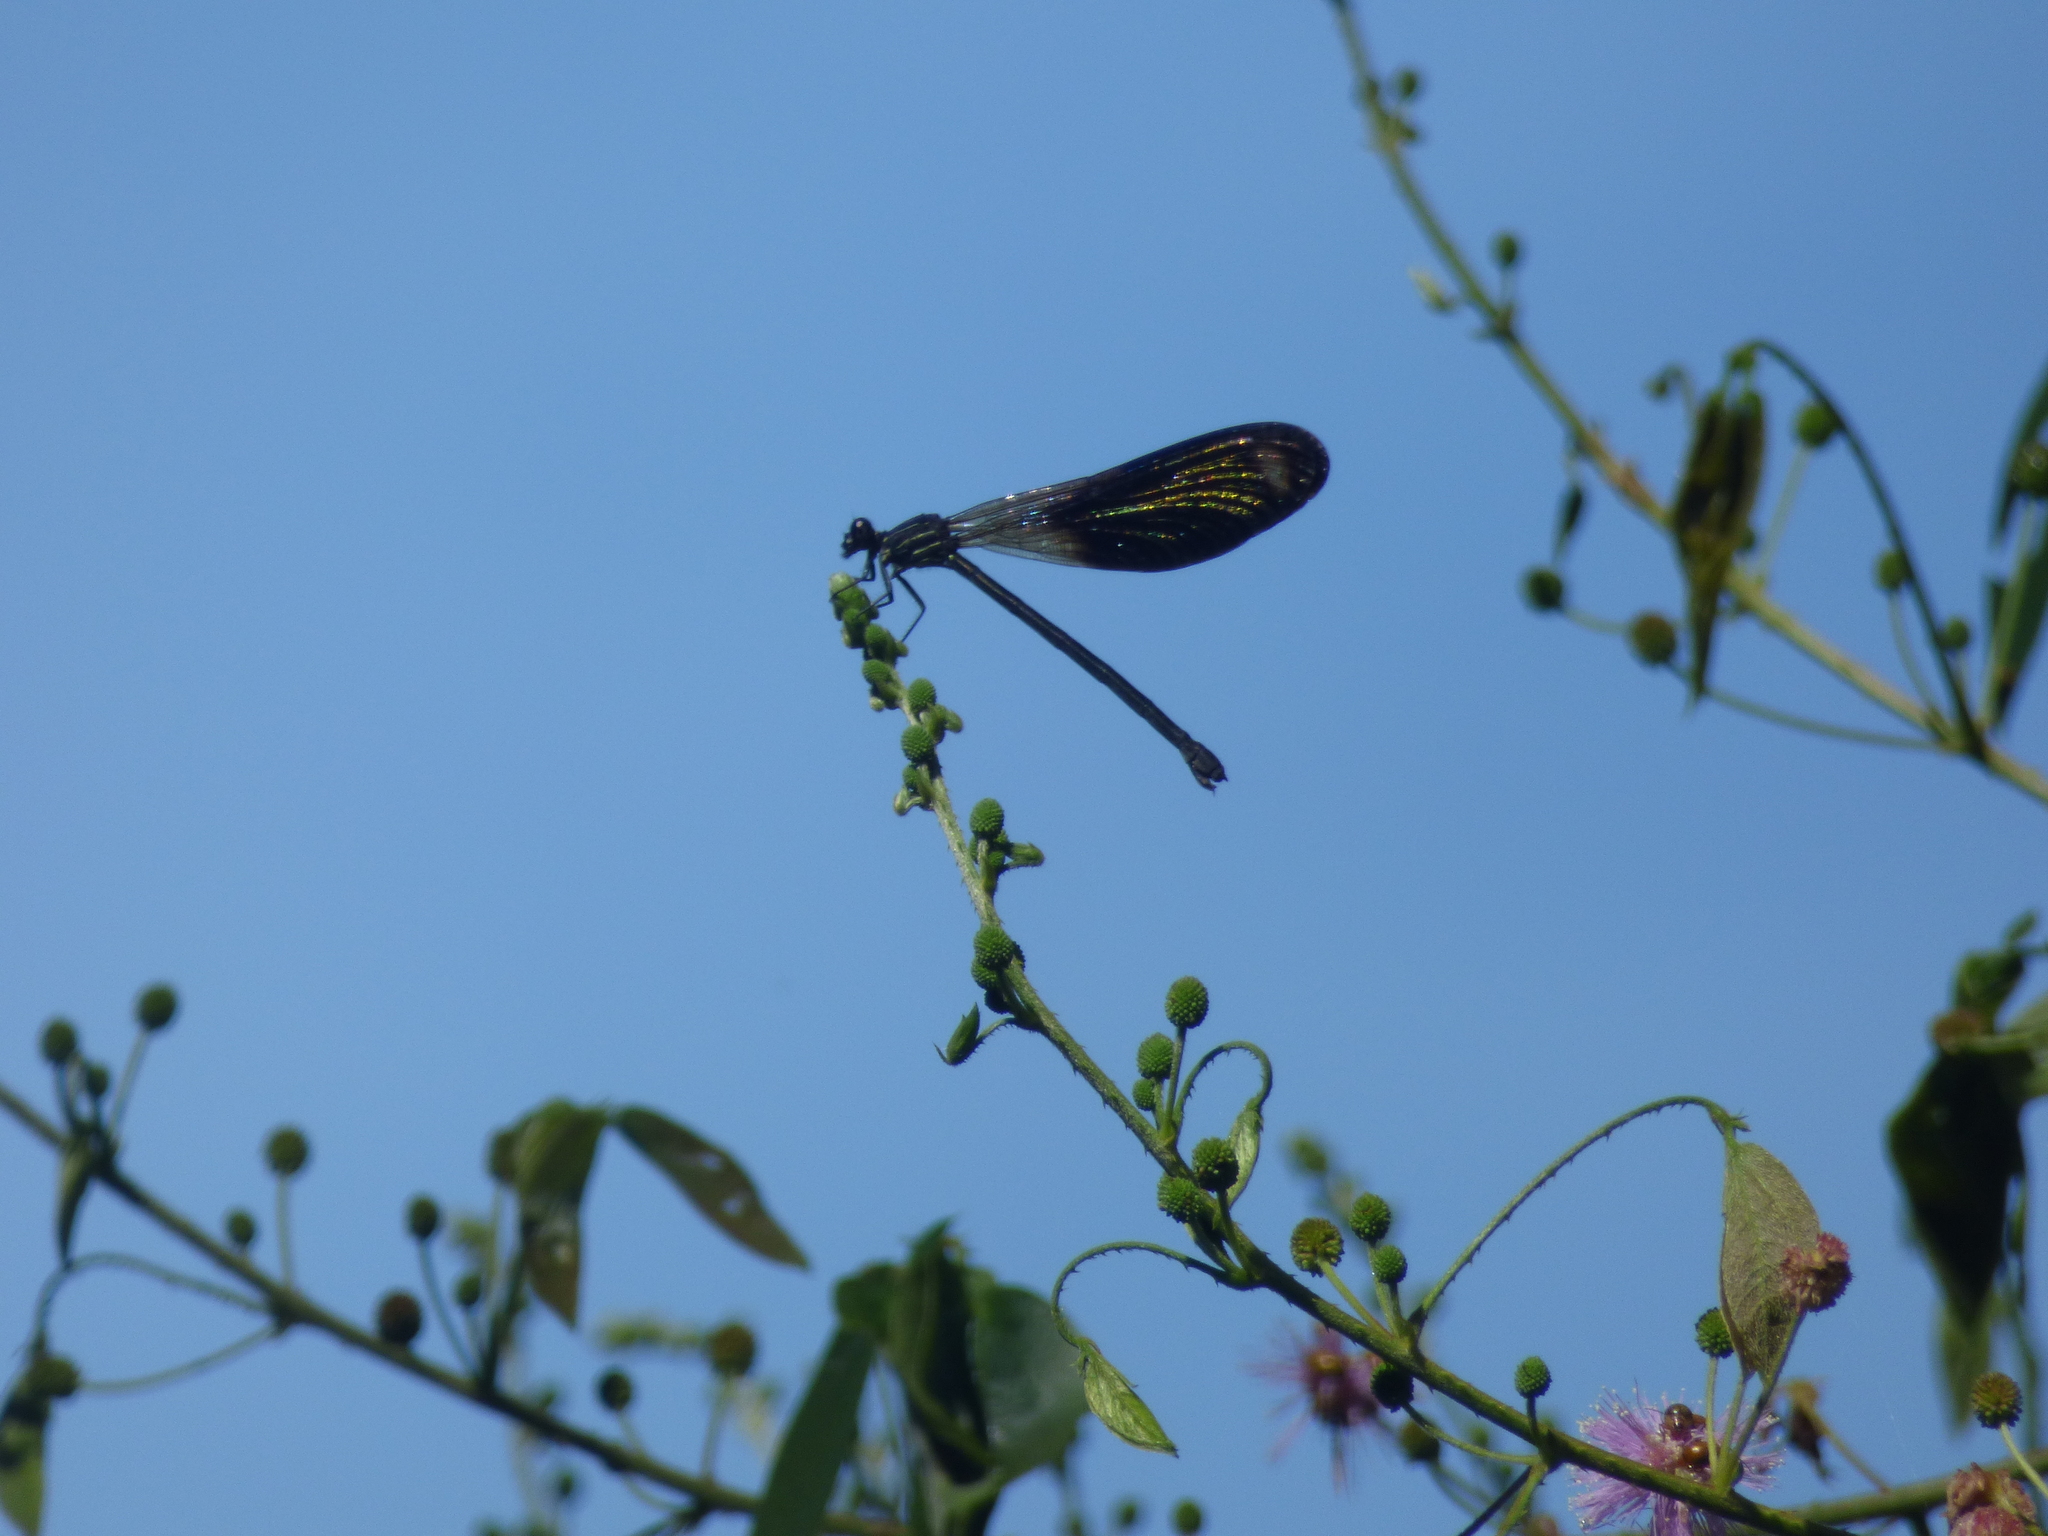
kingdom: Animalia
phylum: Arthropoda
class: Insecta
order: Odonata
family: Polythoridae
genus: Polythore
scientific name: Polythore gigantea
